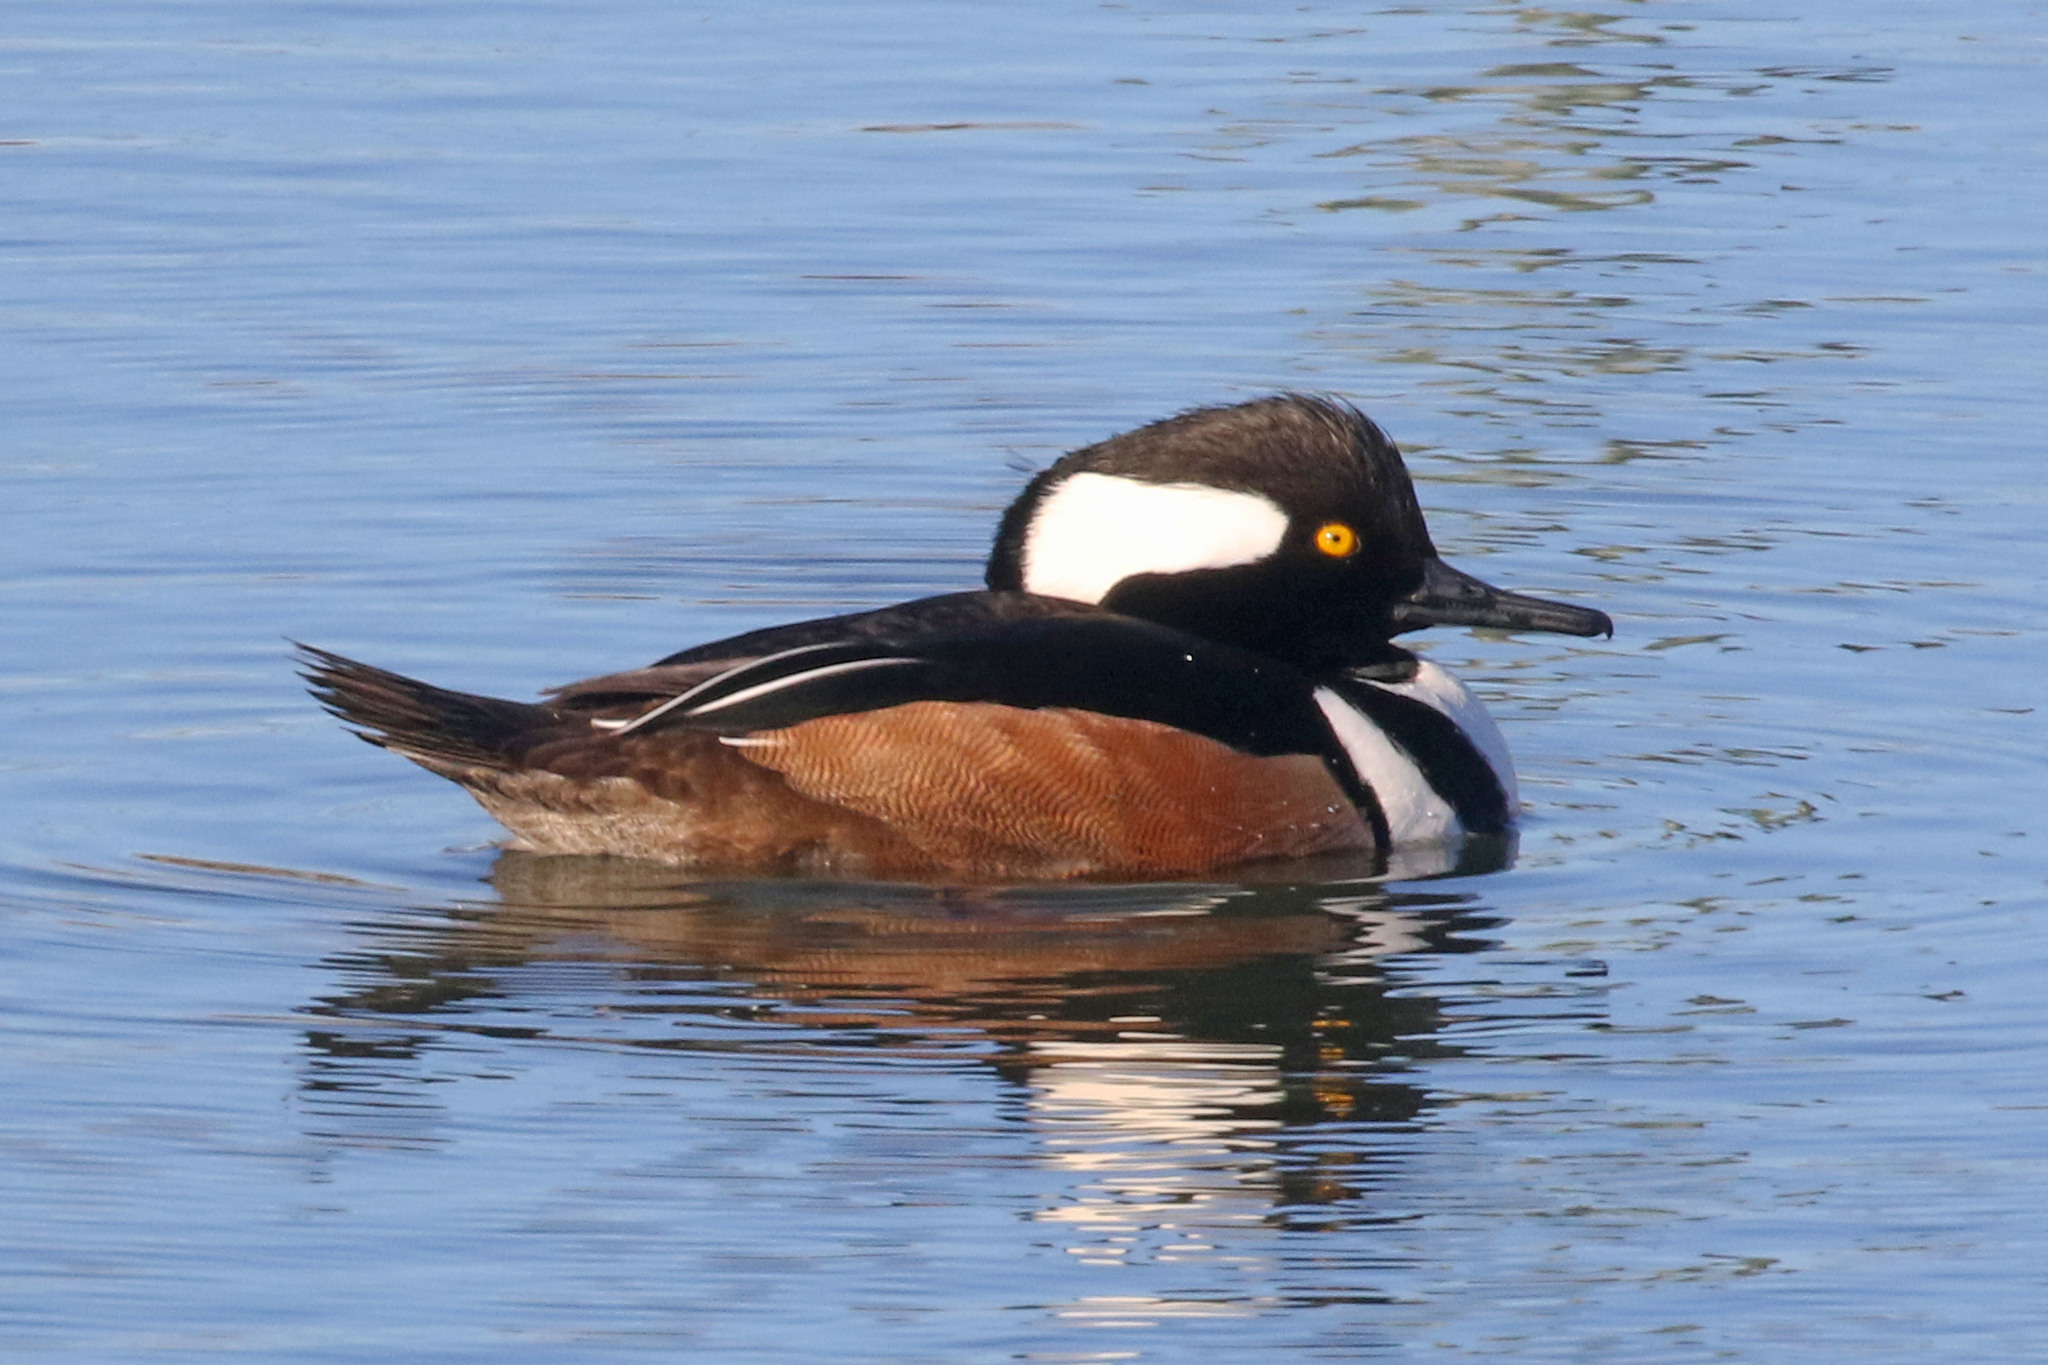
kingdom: Animalia
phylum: Chordata
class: Aves
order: Anseriformes
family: Anatidae
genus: Lophodytes
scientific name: Lophodytes cucullatus
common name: Hooded merganser
